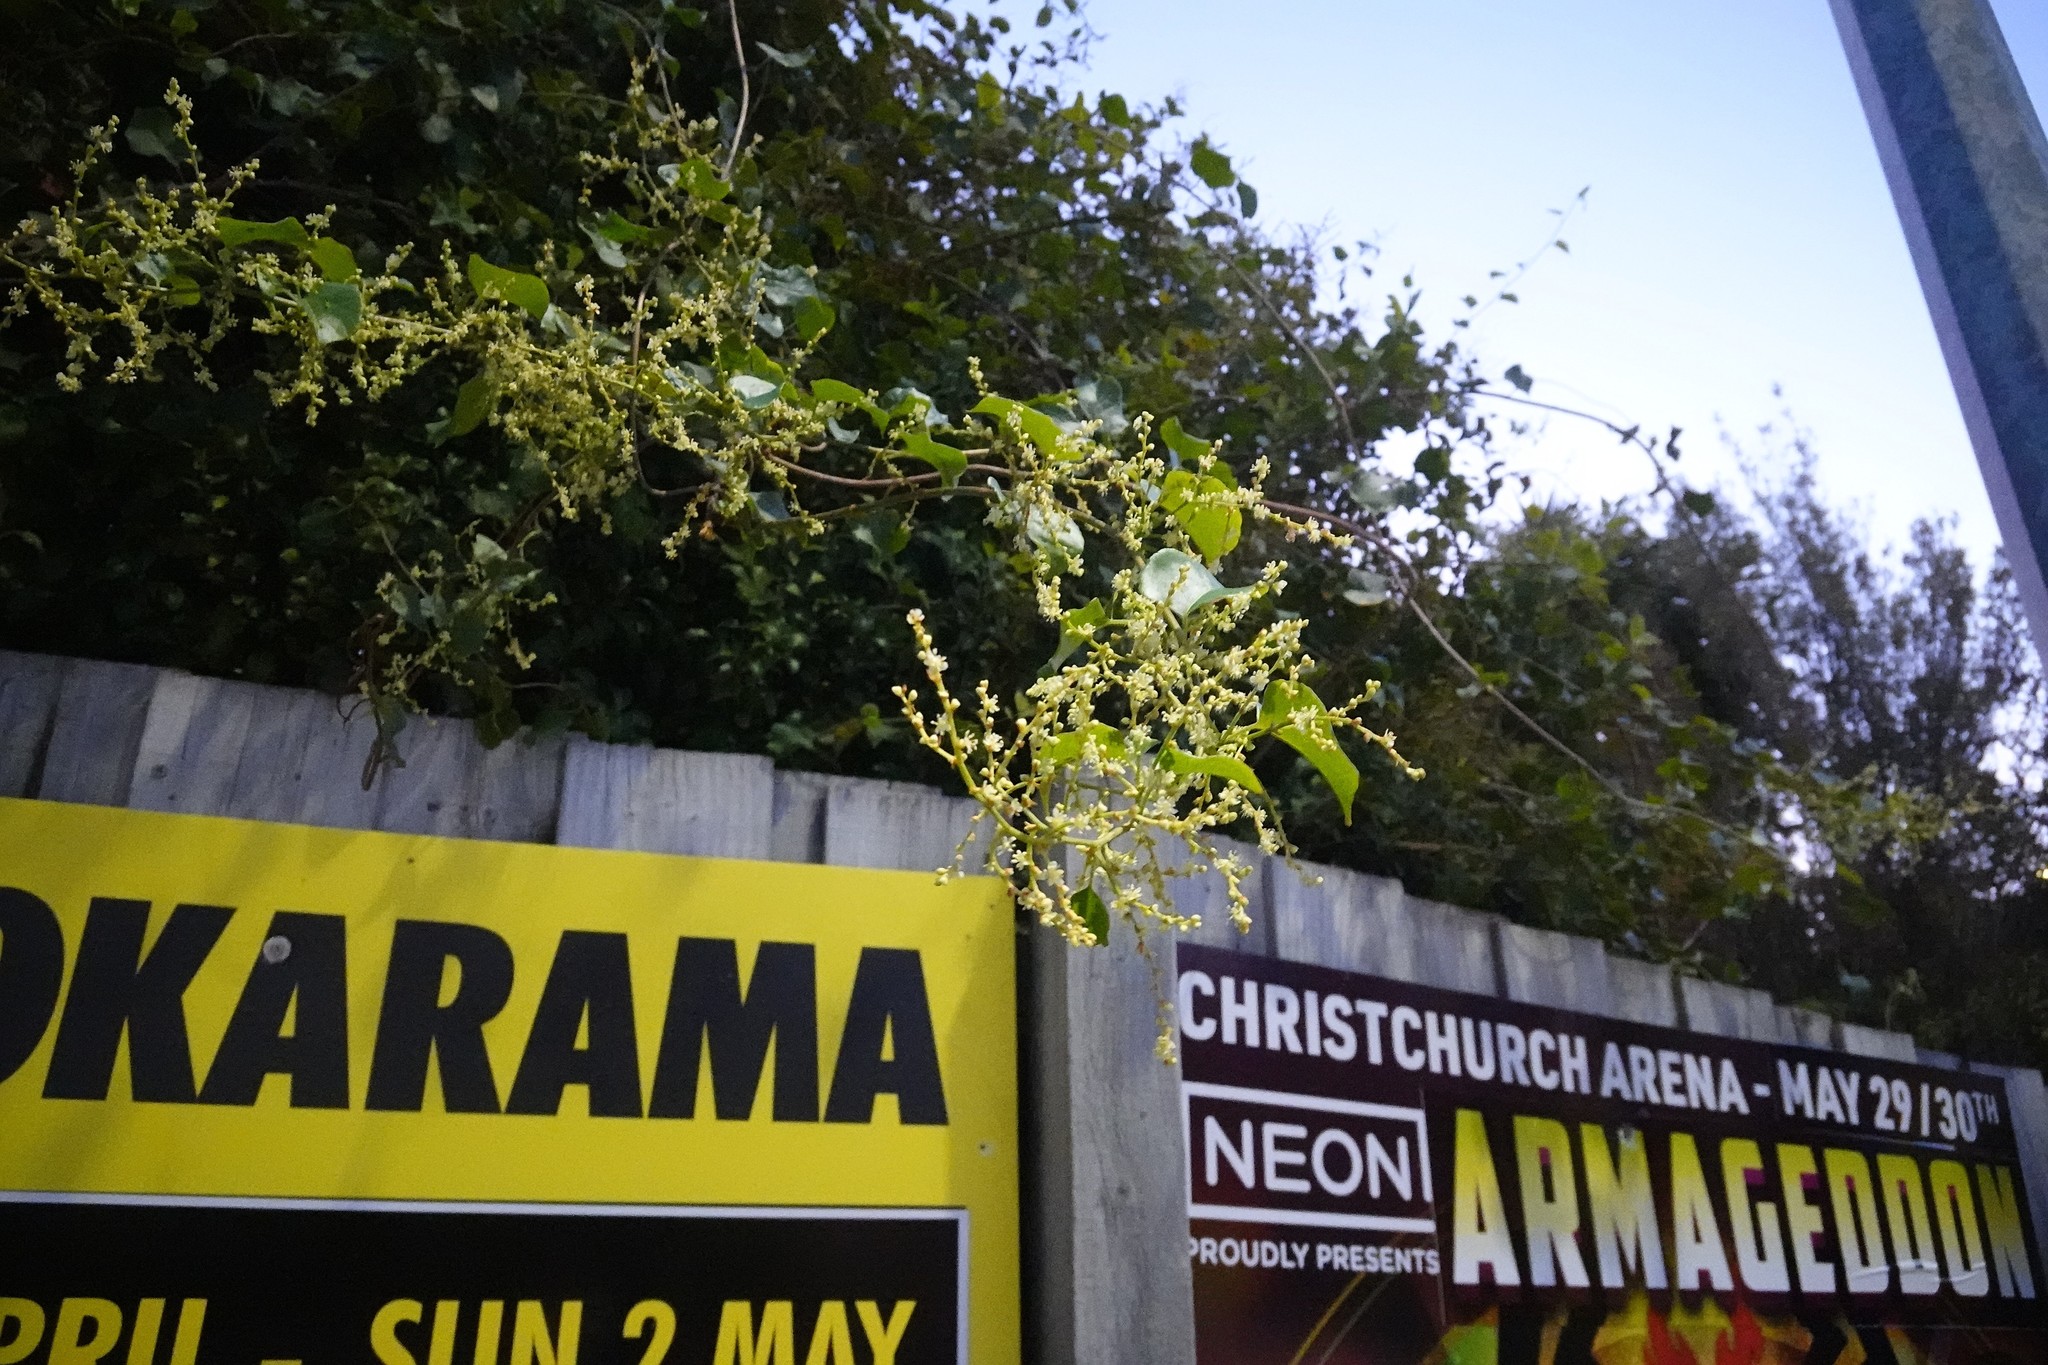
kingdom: Plantae
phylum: Tracheophyta
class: Magnoliopsida
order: Caryophyllales
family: Polygonaceae
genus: Muehlenbeckia
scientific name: Muehlenbeckia australis
